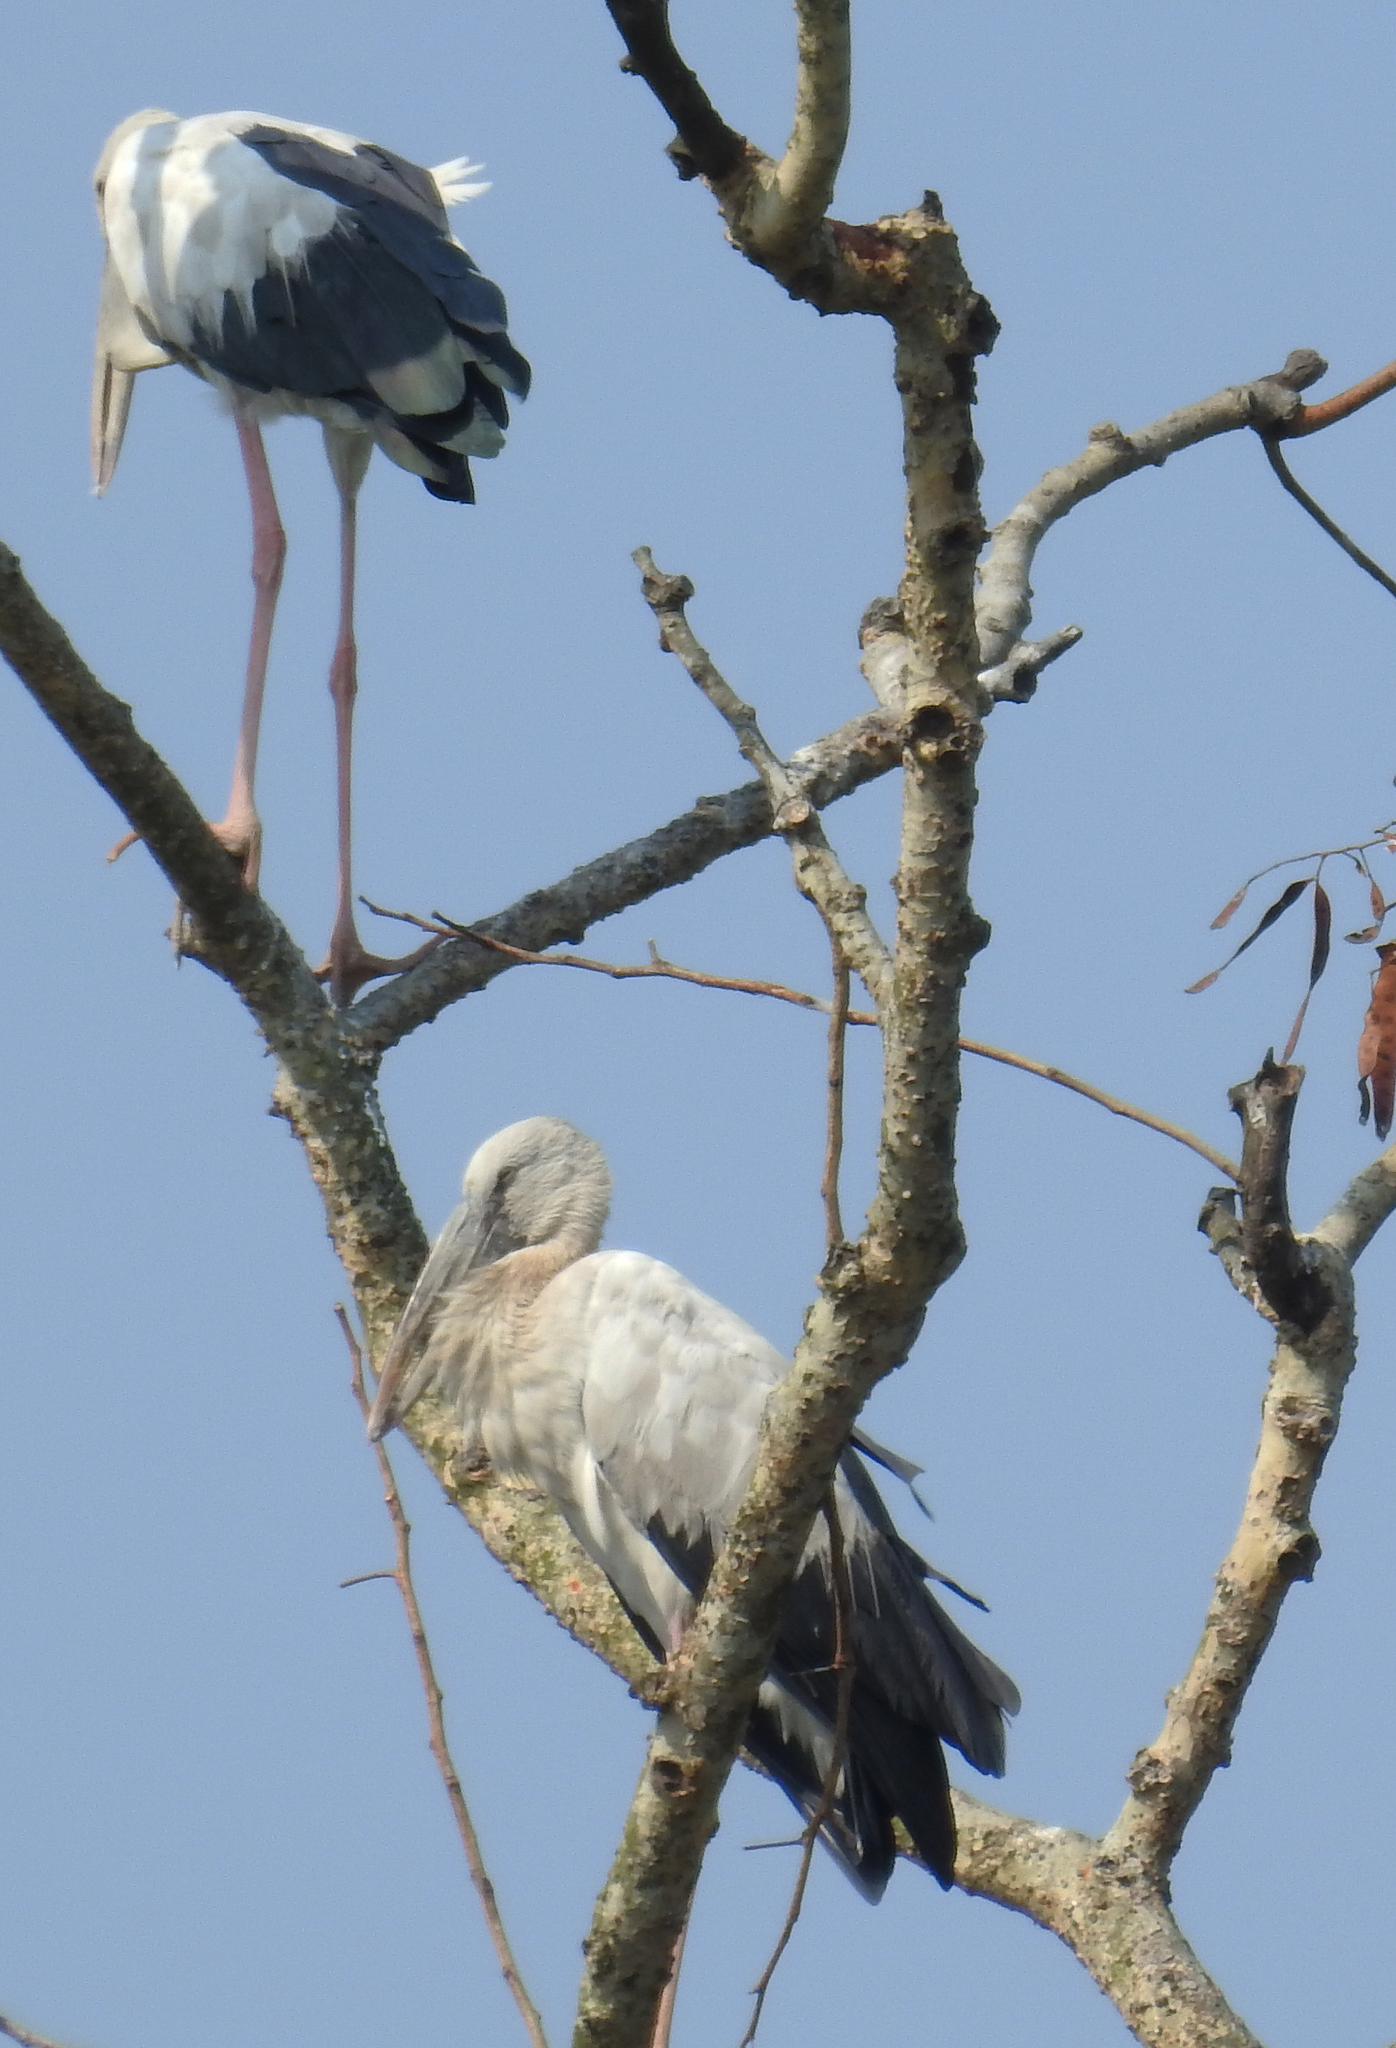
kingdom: Animalia
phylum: Chordata
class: Aves
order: Ciconiiformes
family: Ciconiidae
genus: Anastomus
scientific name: Anastomus oscitans
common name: Asian openbill
